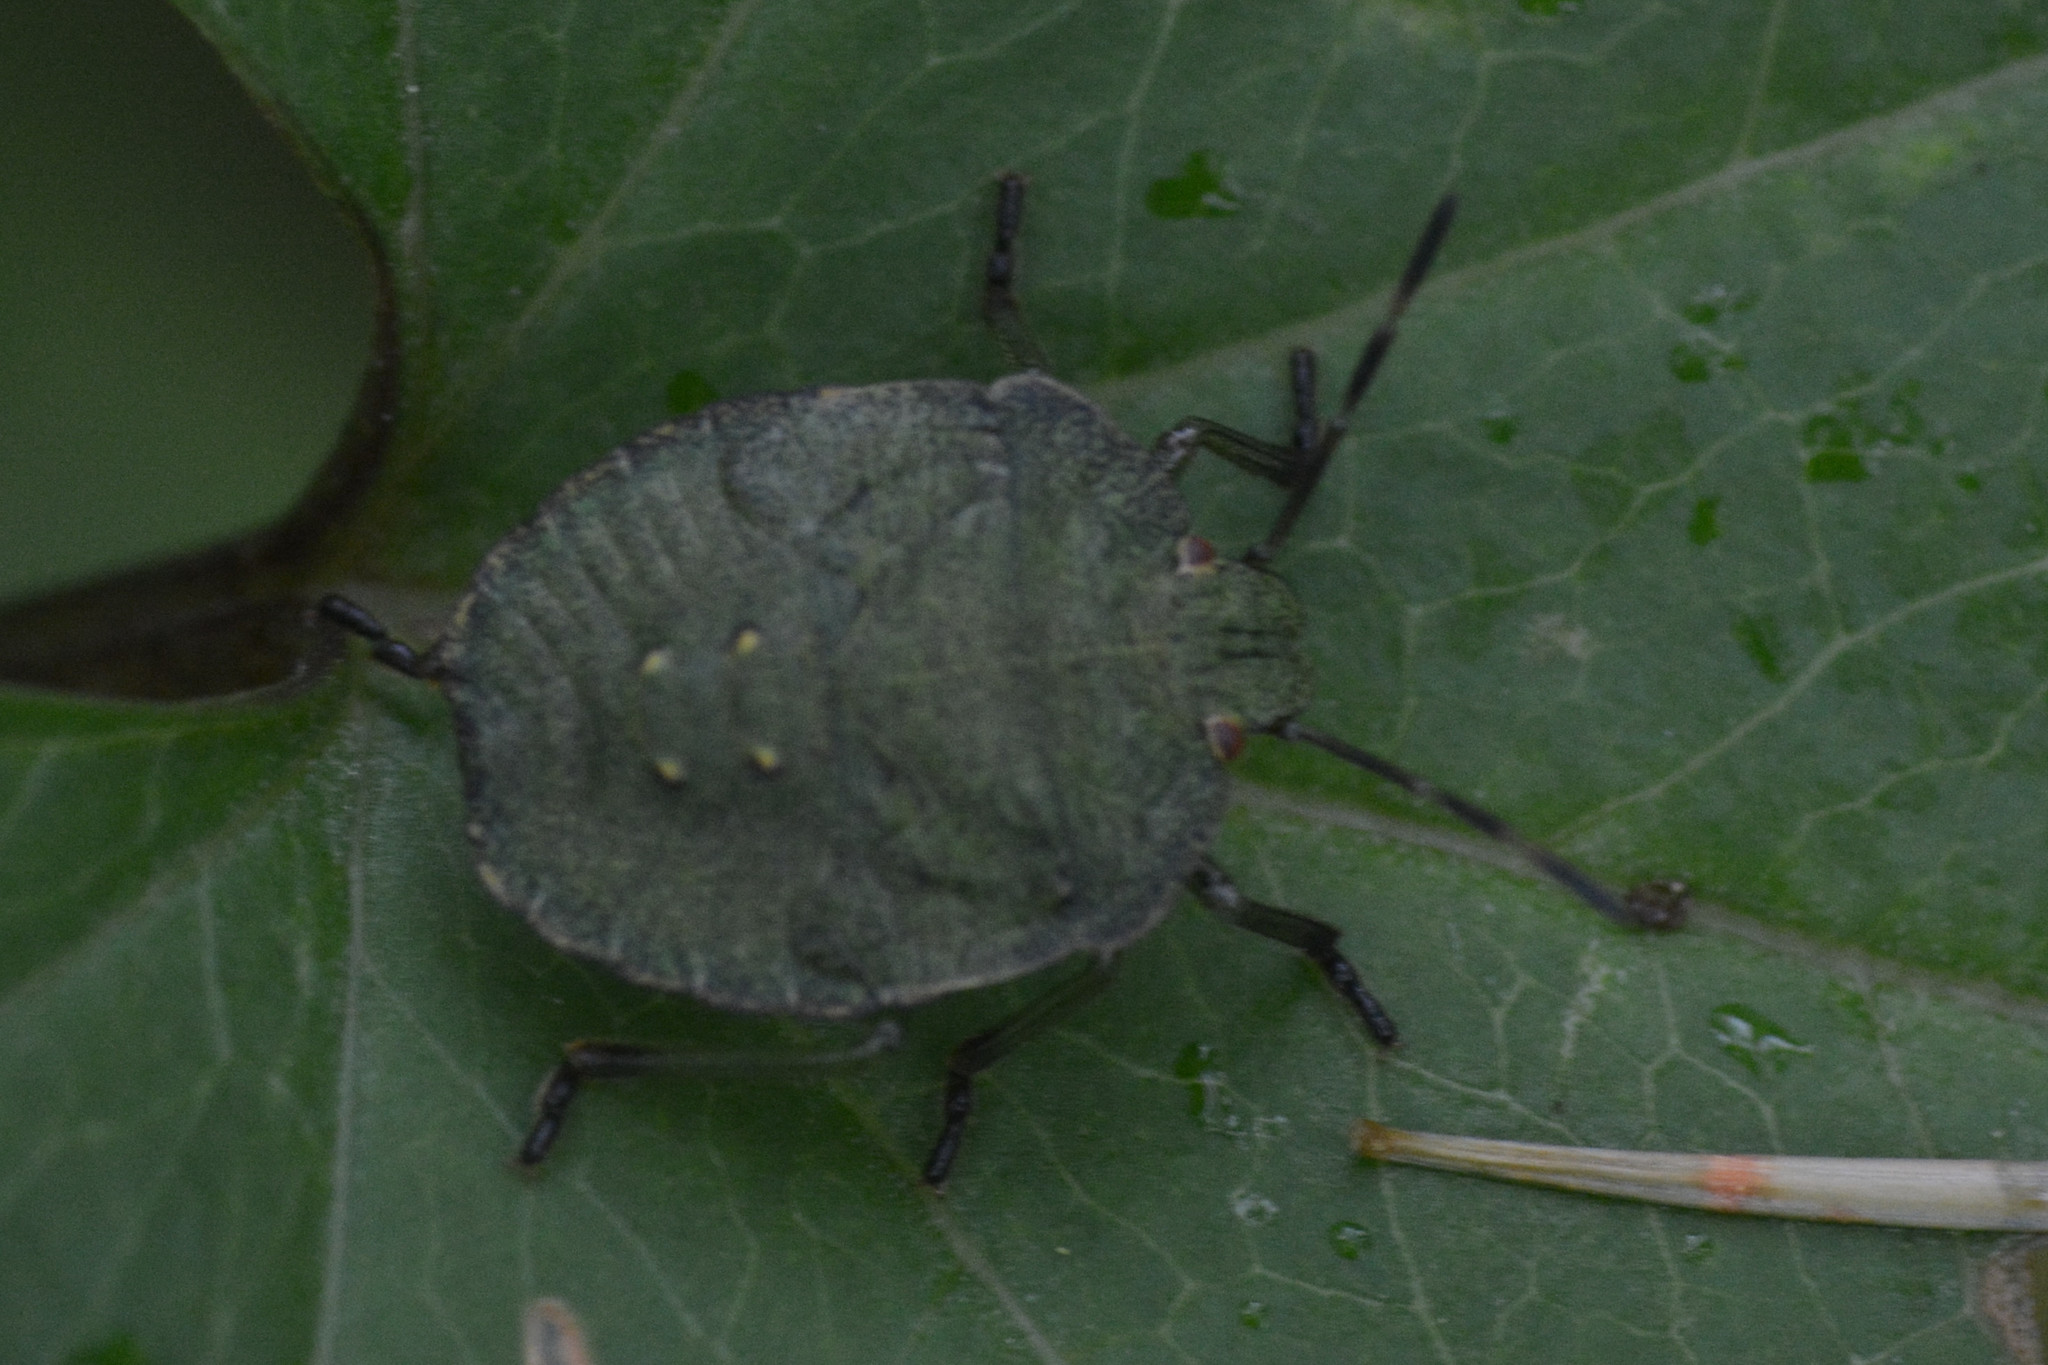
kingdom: Animalia
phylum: Arthropoda
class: Insecta
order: Hemiptera
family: Pentatomidae
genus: Palomena
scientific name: Palomena prasina
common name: Green shieldbug
